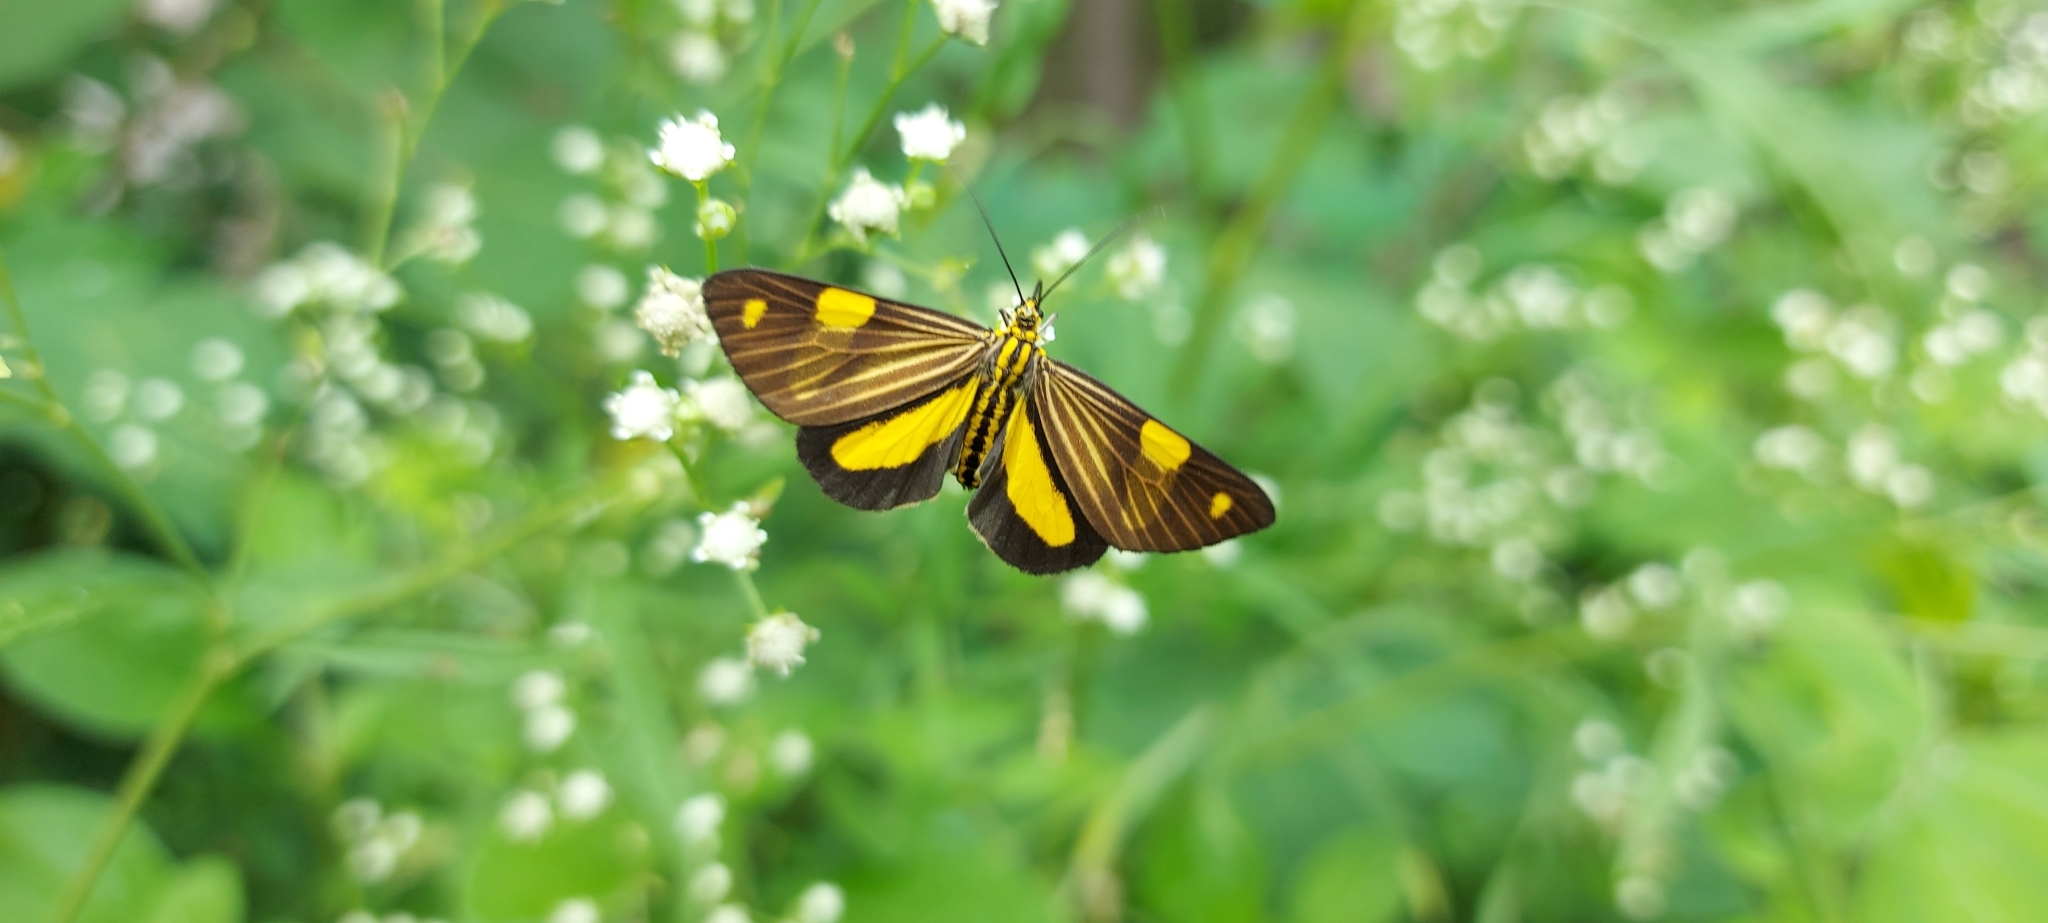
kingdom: Animalia
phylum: Arthropoda
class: Insecta
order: Lepidoptera
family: Notodontidae
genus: Phaeochlaena
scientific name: Phaeochlaena
